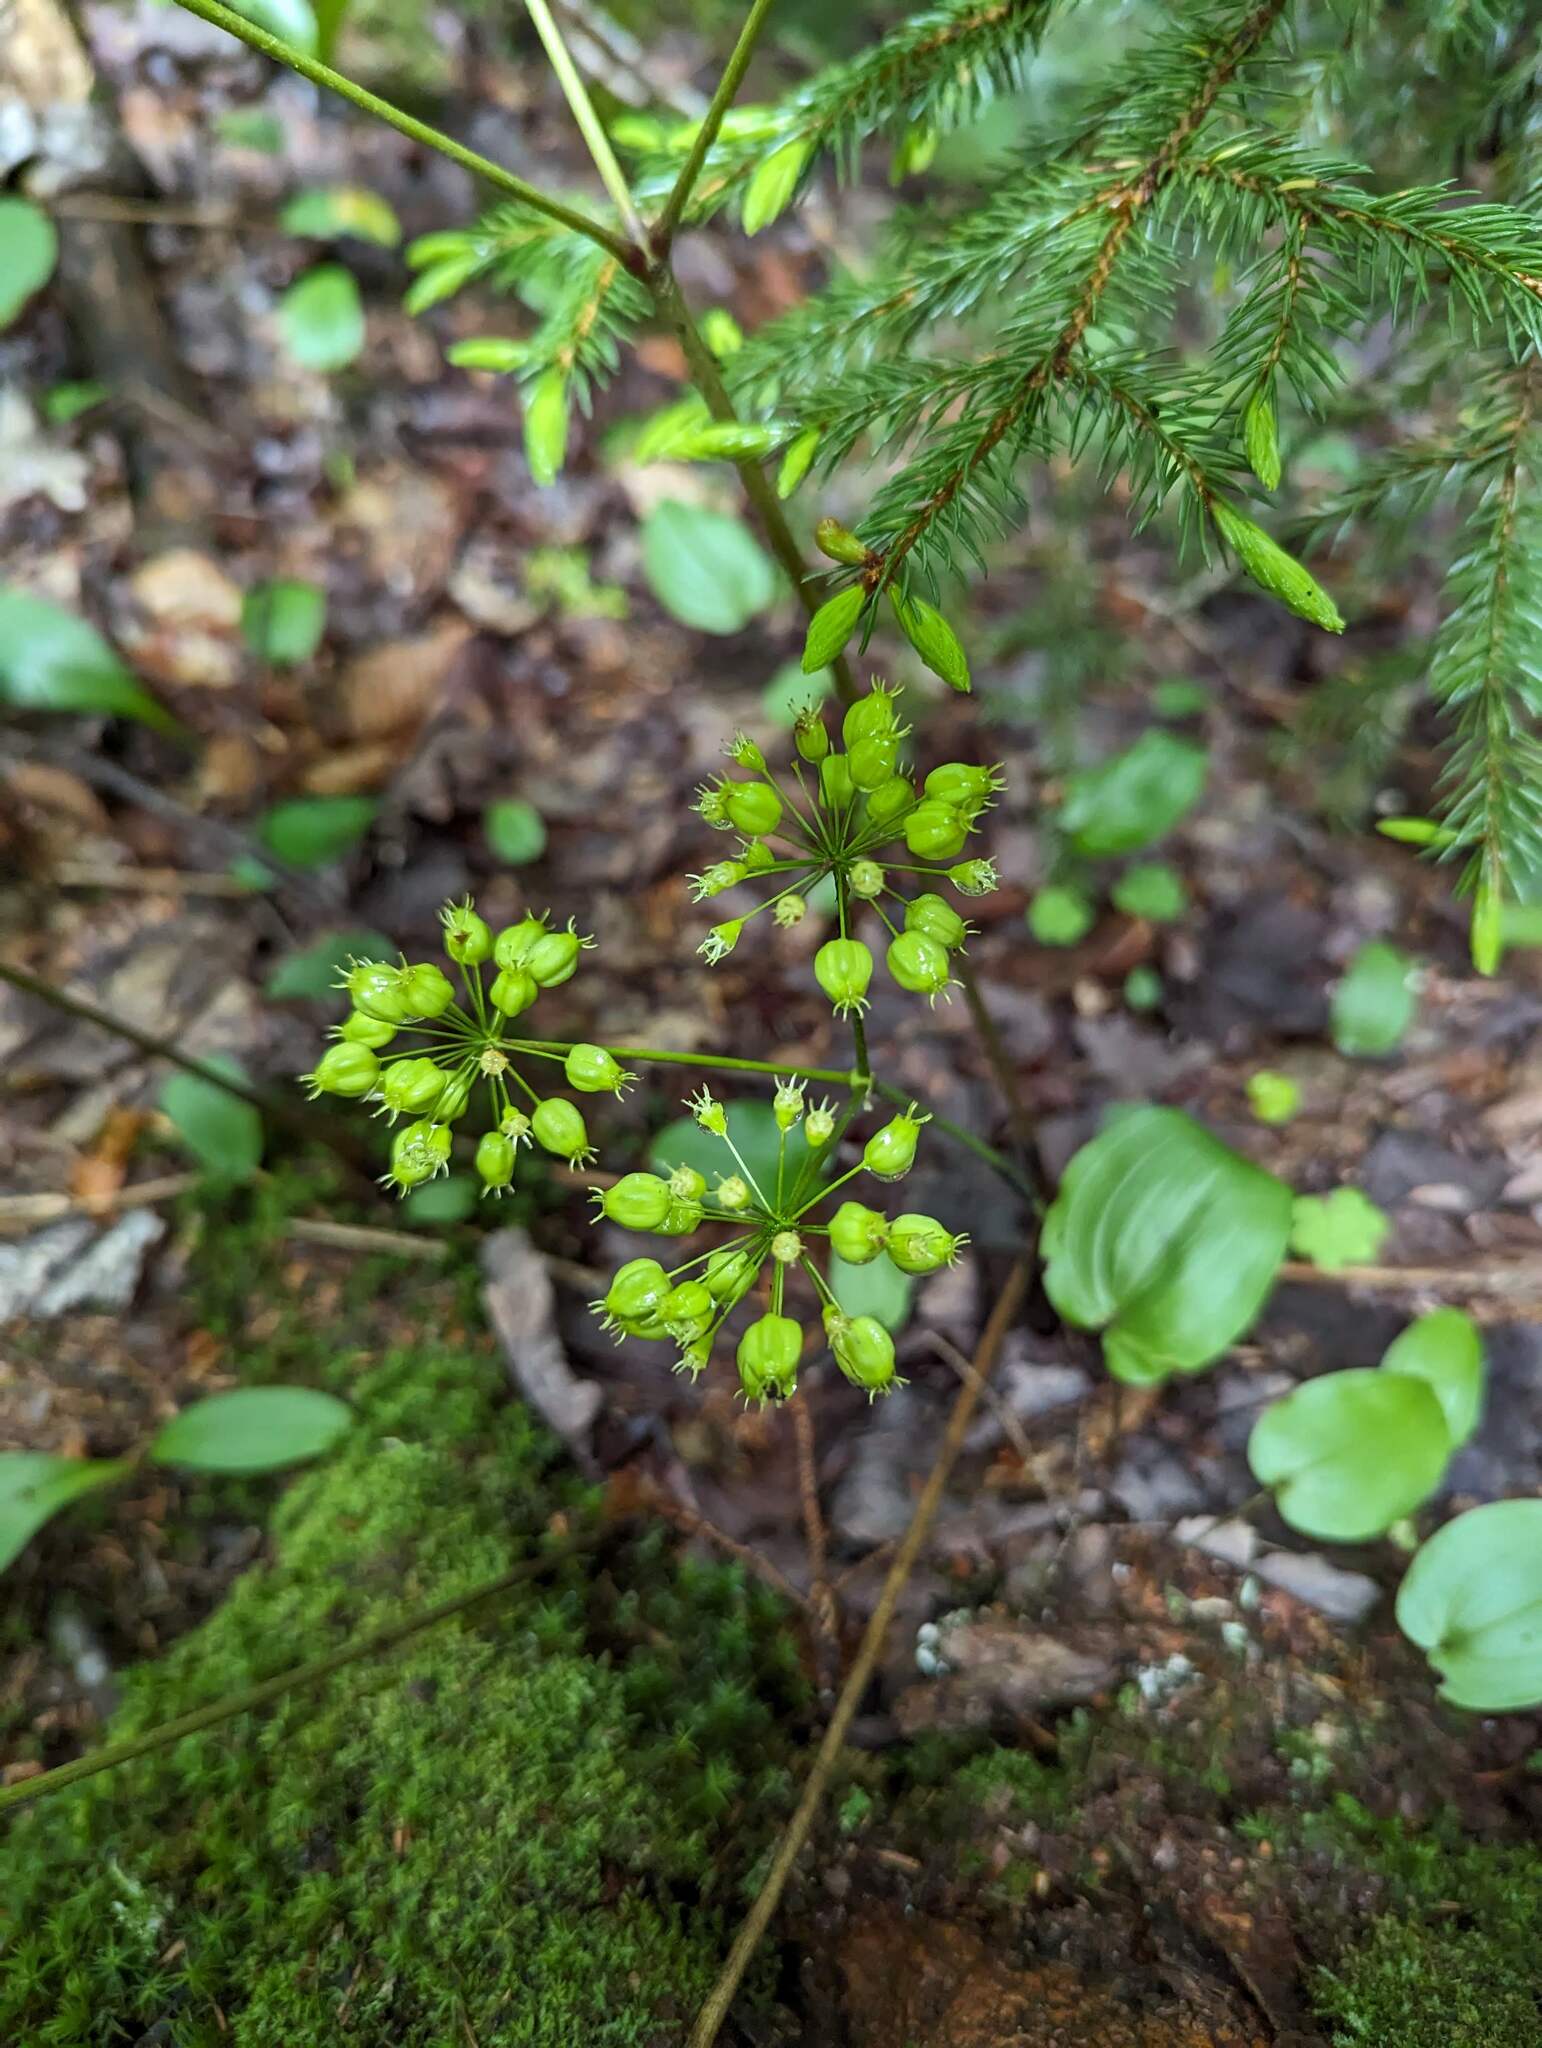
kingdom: Plantae
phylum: Tracheophyta
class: Magnoliopsida
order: Apiales
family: Araliaceae
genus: Aralia
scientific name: Aralia nudicaulis
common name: Wild sarsaparilla
